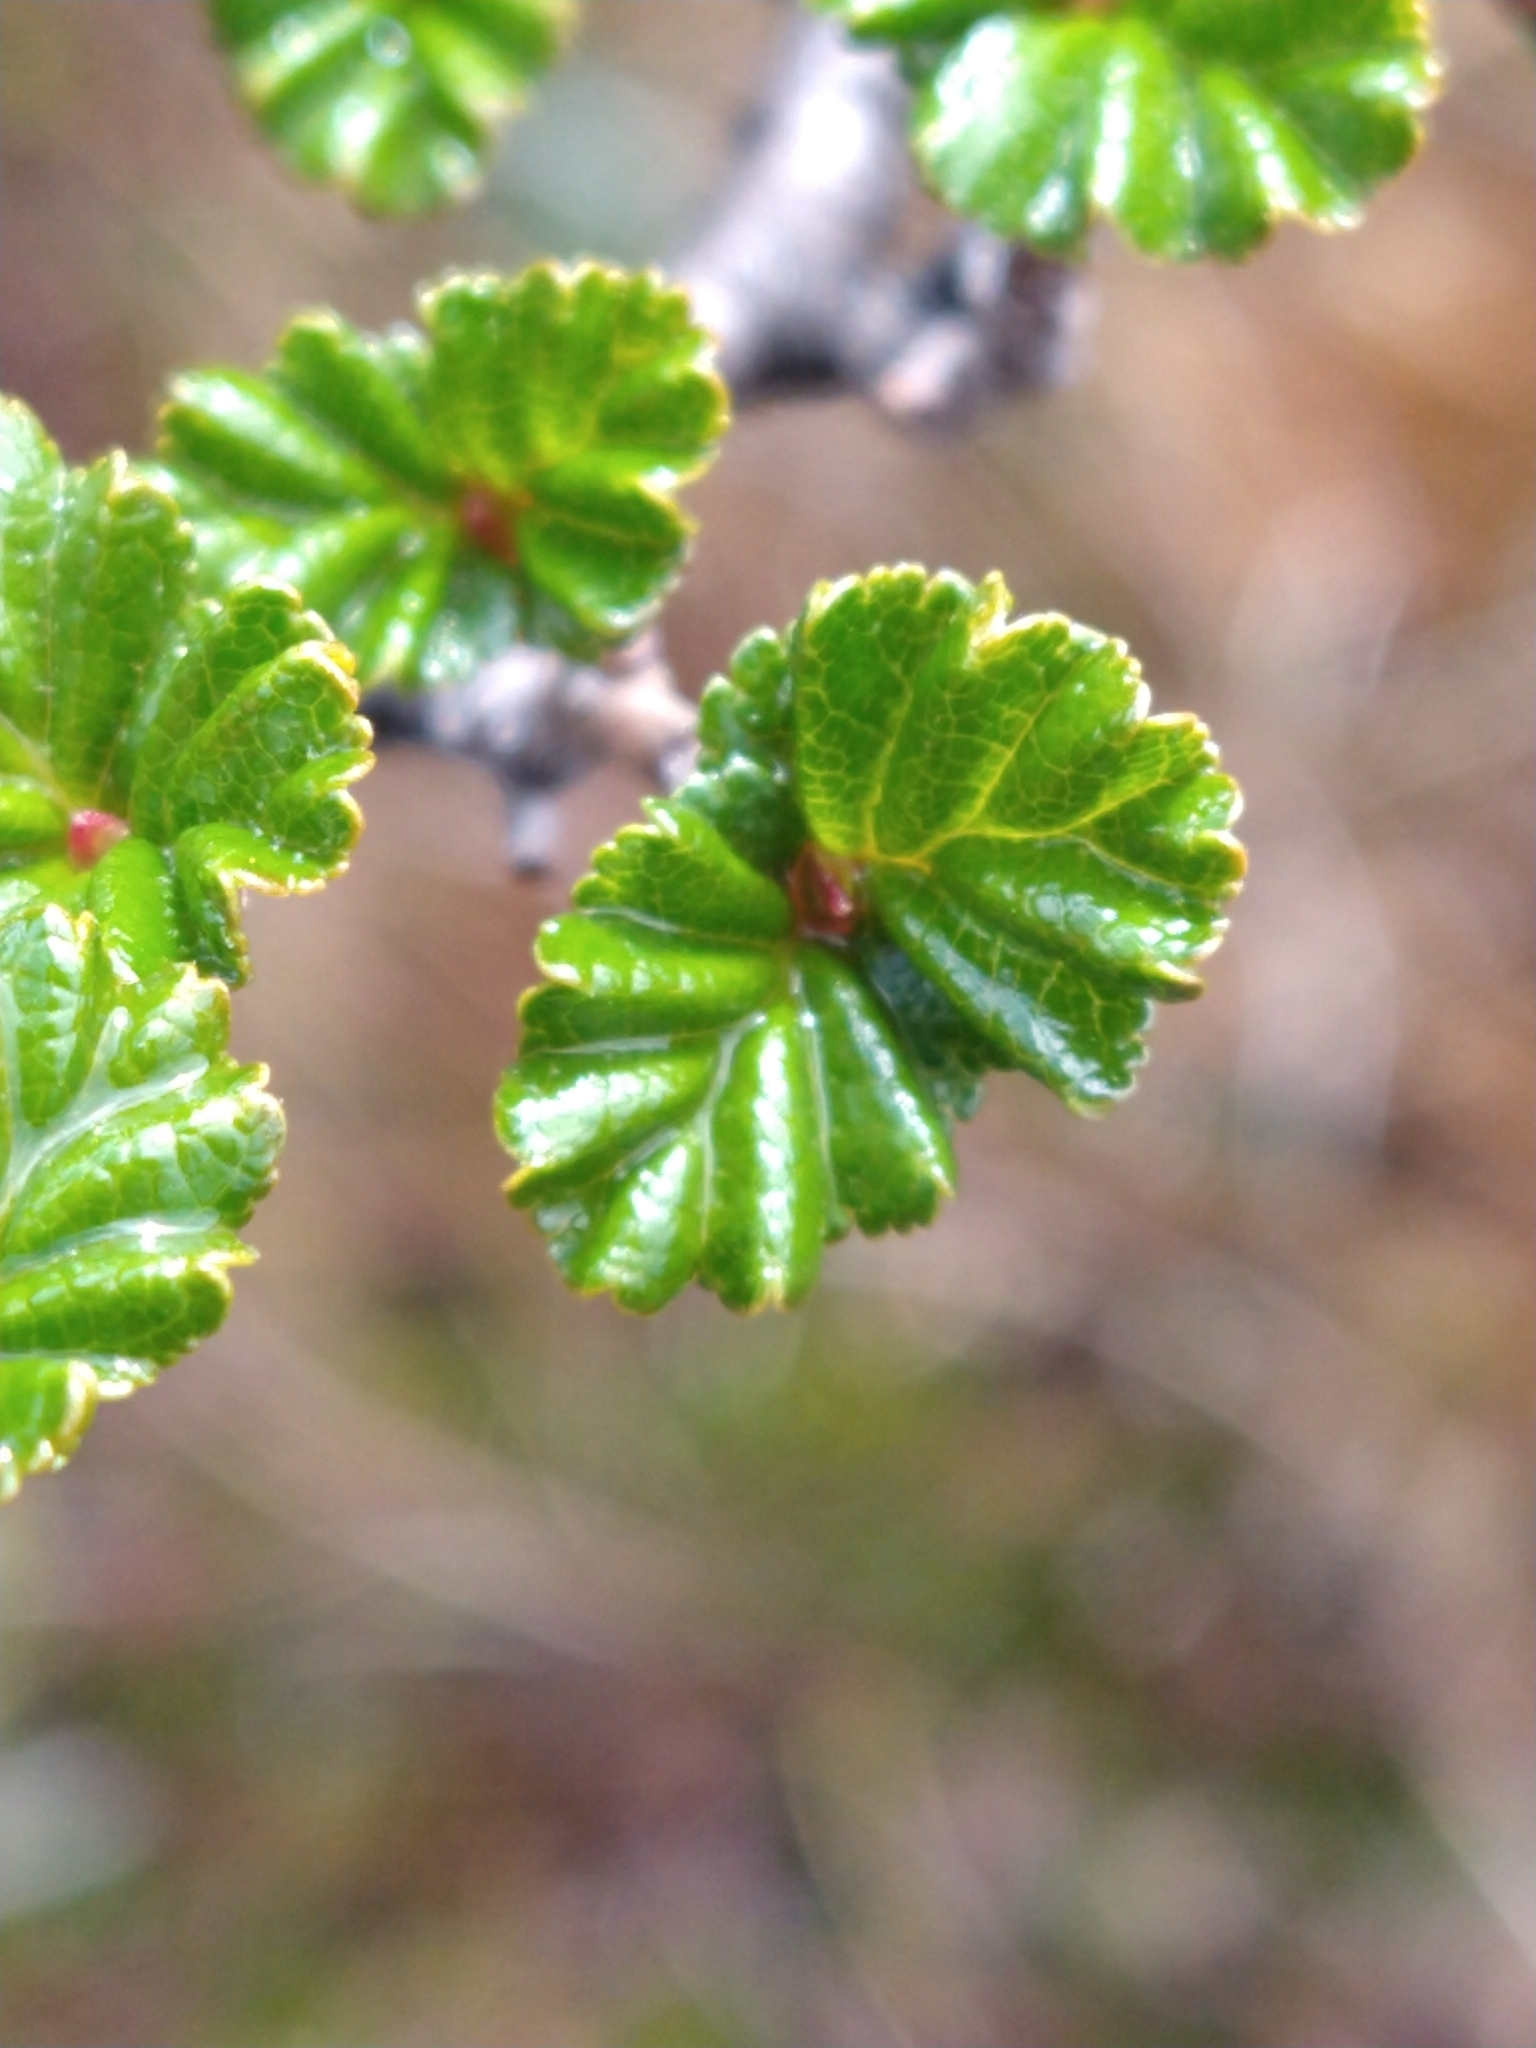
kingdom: Plantae
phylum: Tracheophyta
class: Magnoliopsida
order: Fagales
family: Nothofagaceae
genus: Nothofagus
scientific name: Nothofagus antarctica
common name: Antarctic beech
